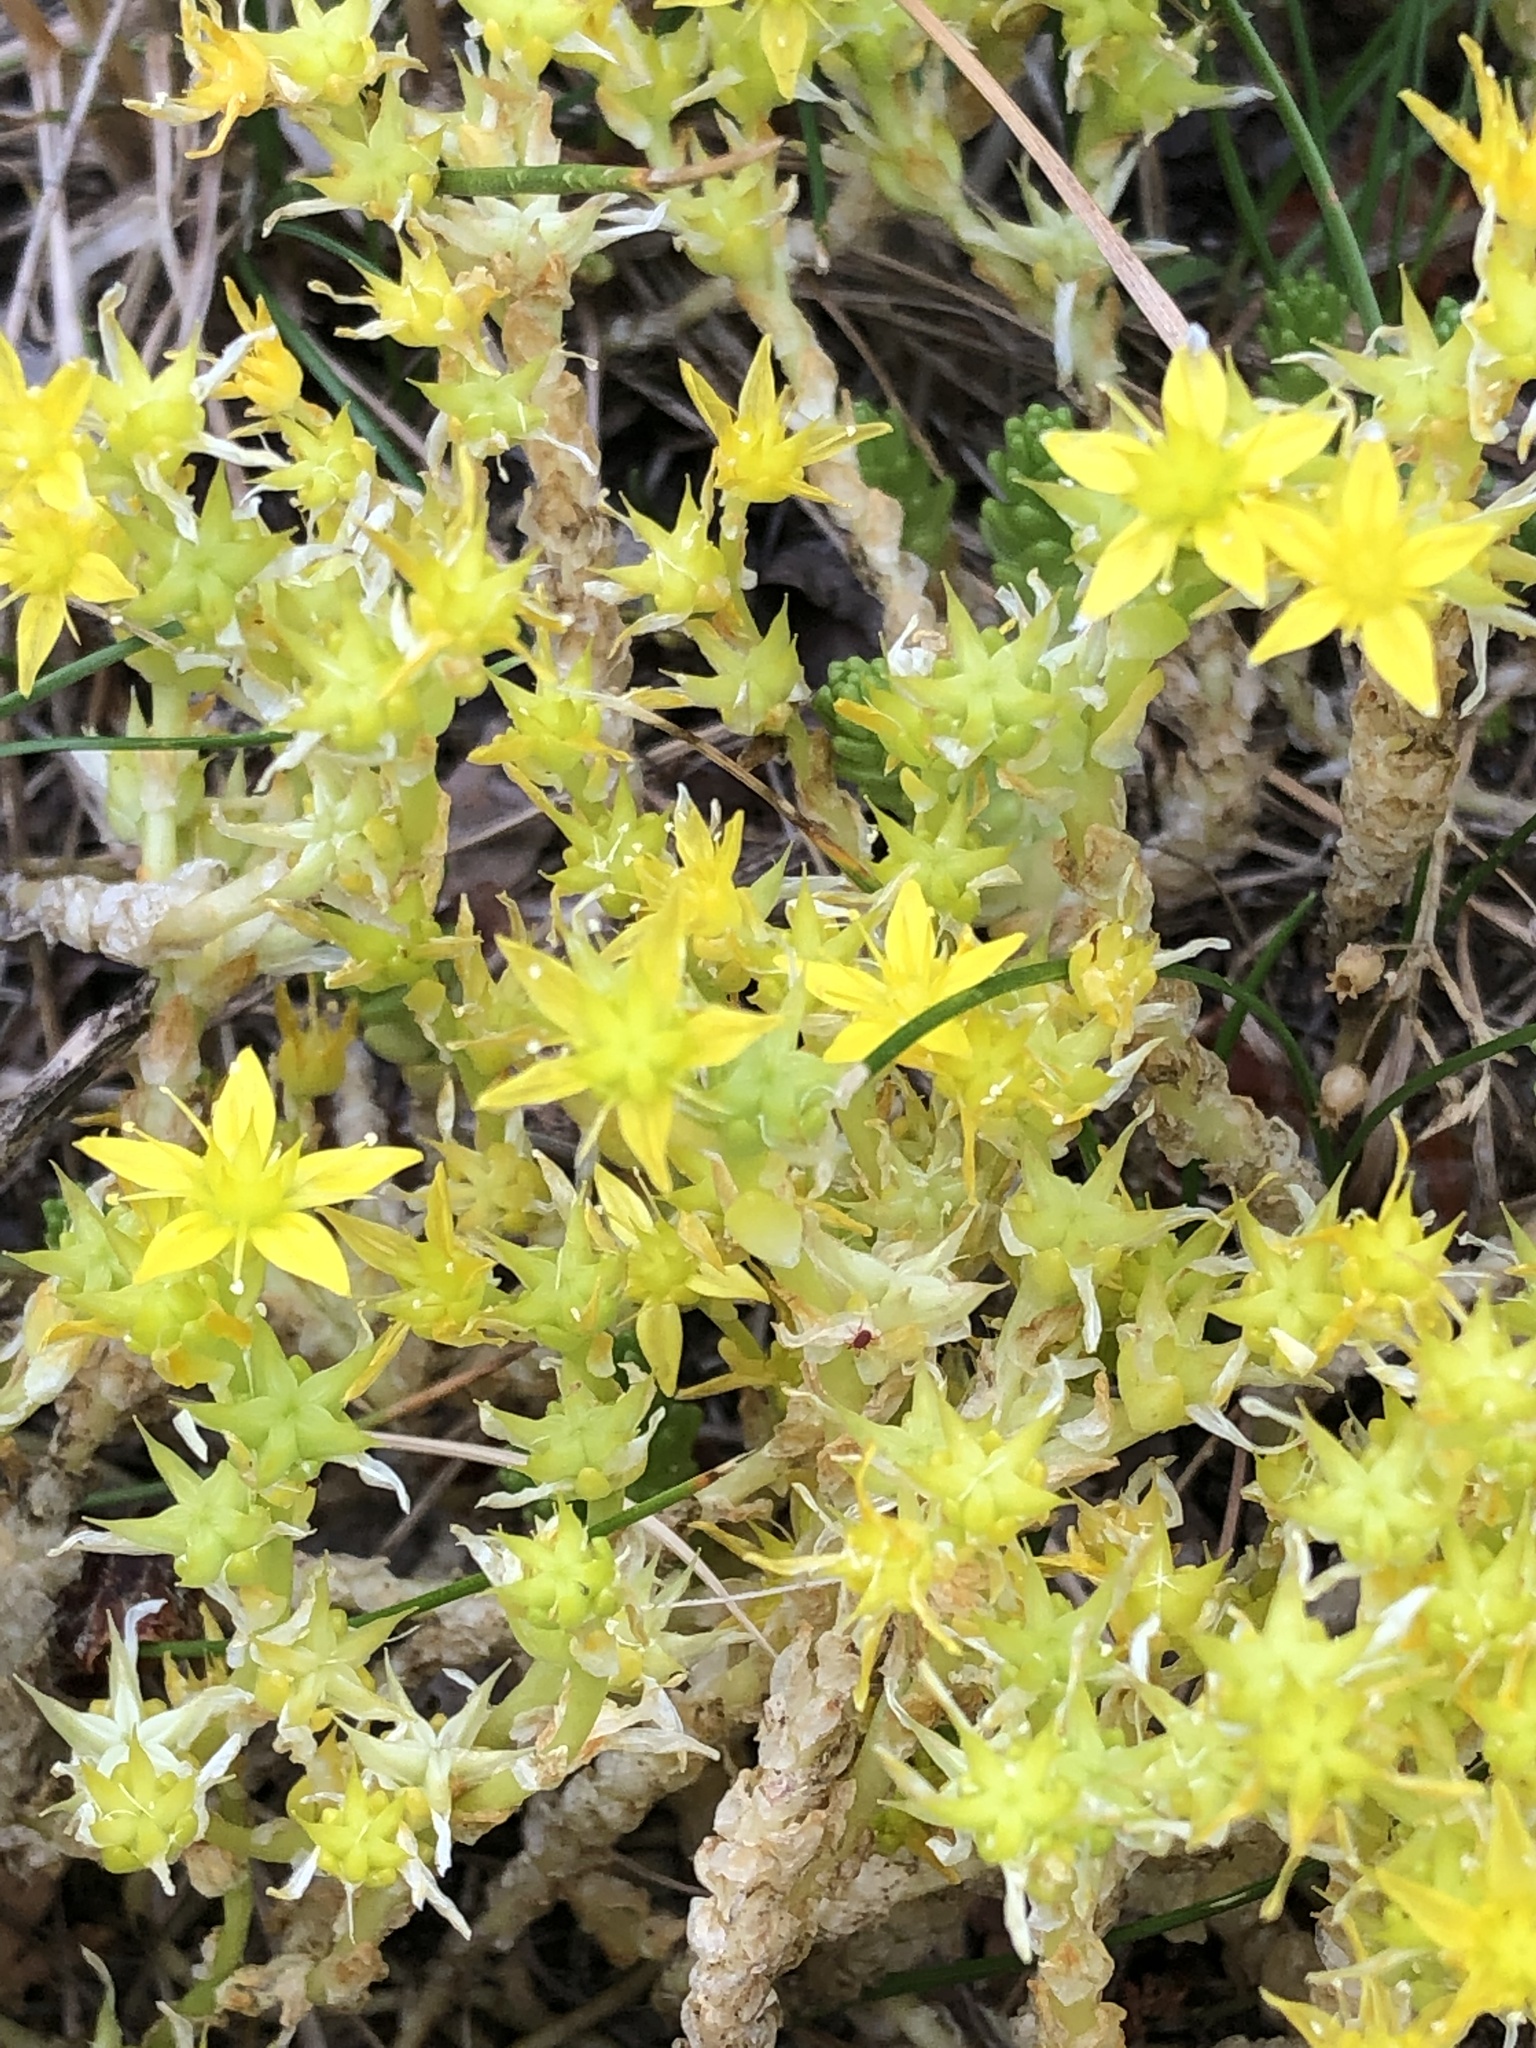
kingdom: Plantae
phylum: Tracheophyta
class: Magnoliopsida
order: Saxifragales
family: Crassulaceae
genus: Sedum
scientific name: Sedum acre
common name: Biting stonecrop
